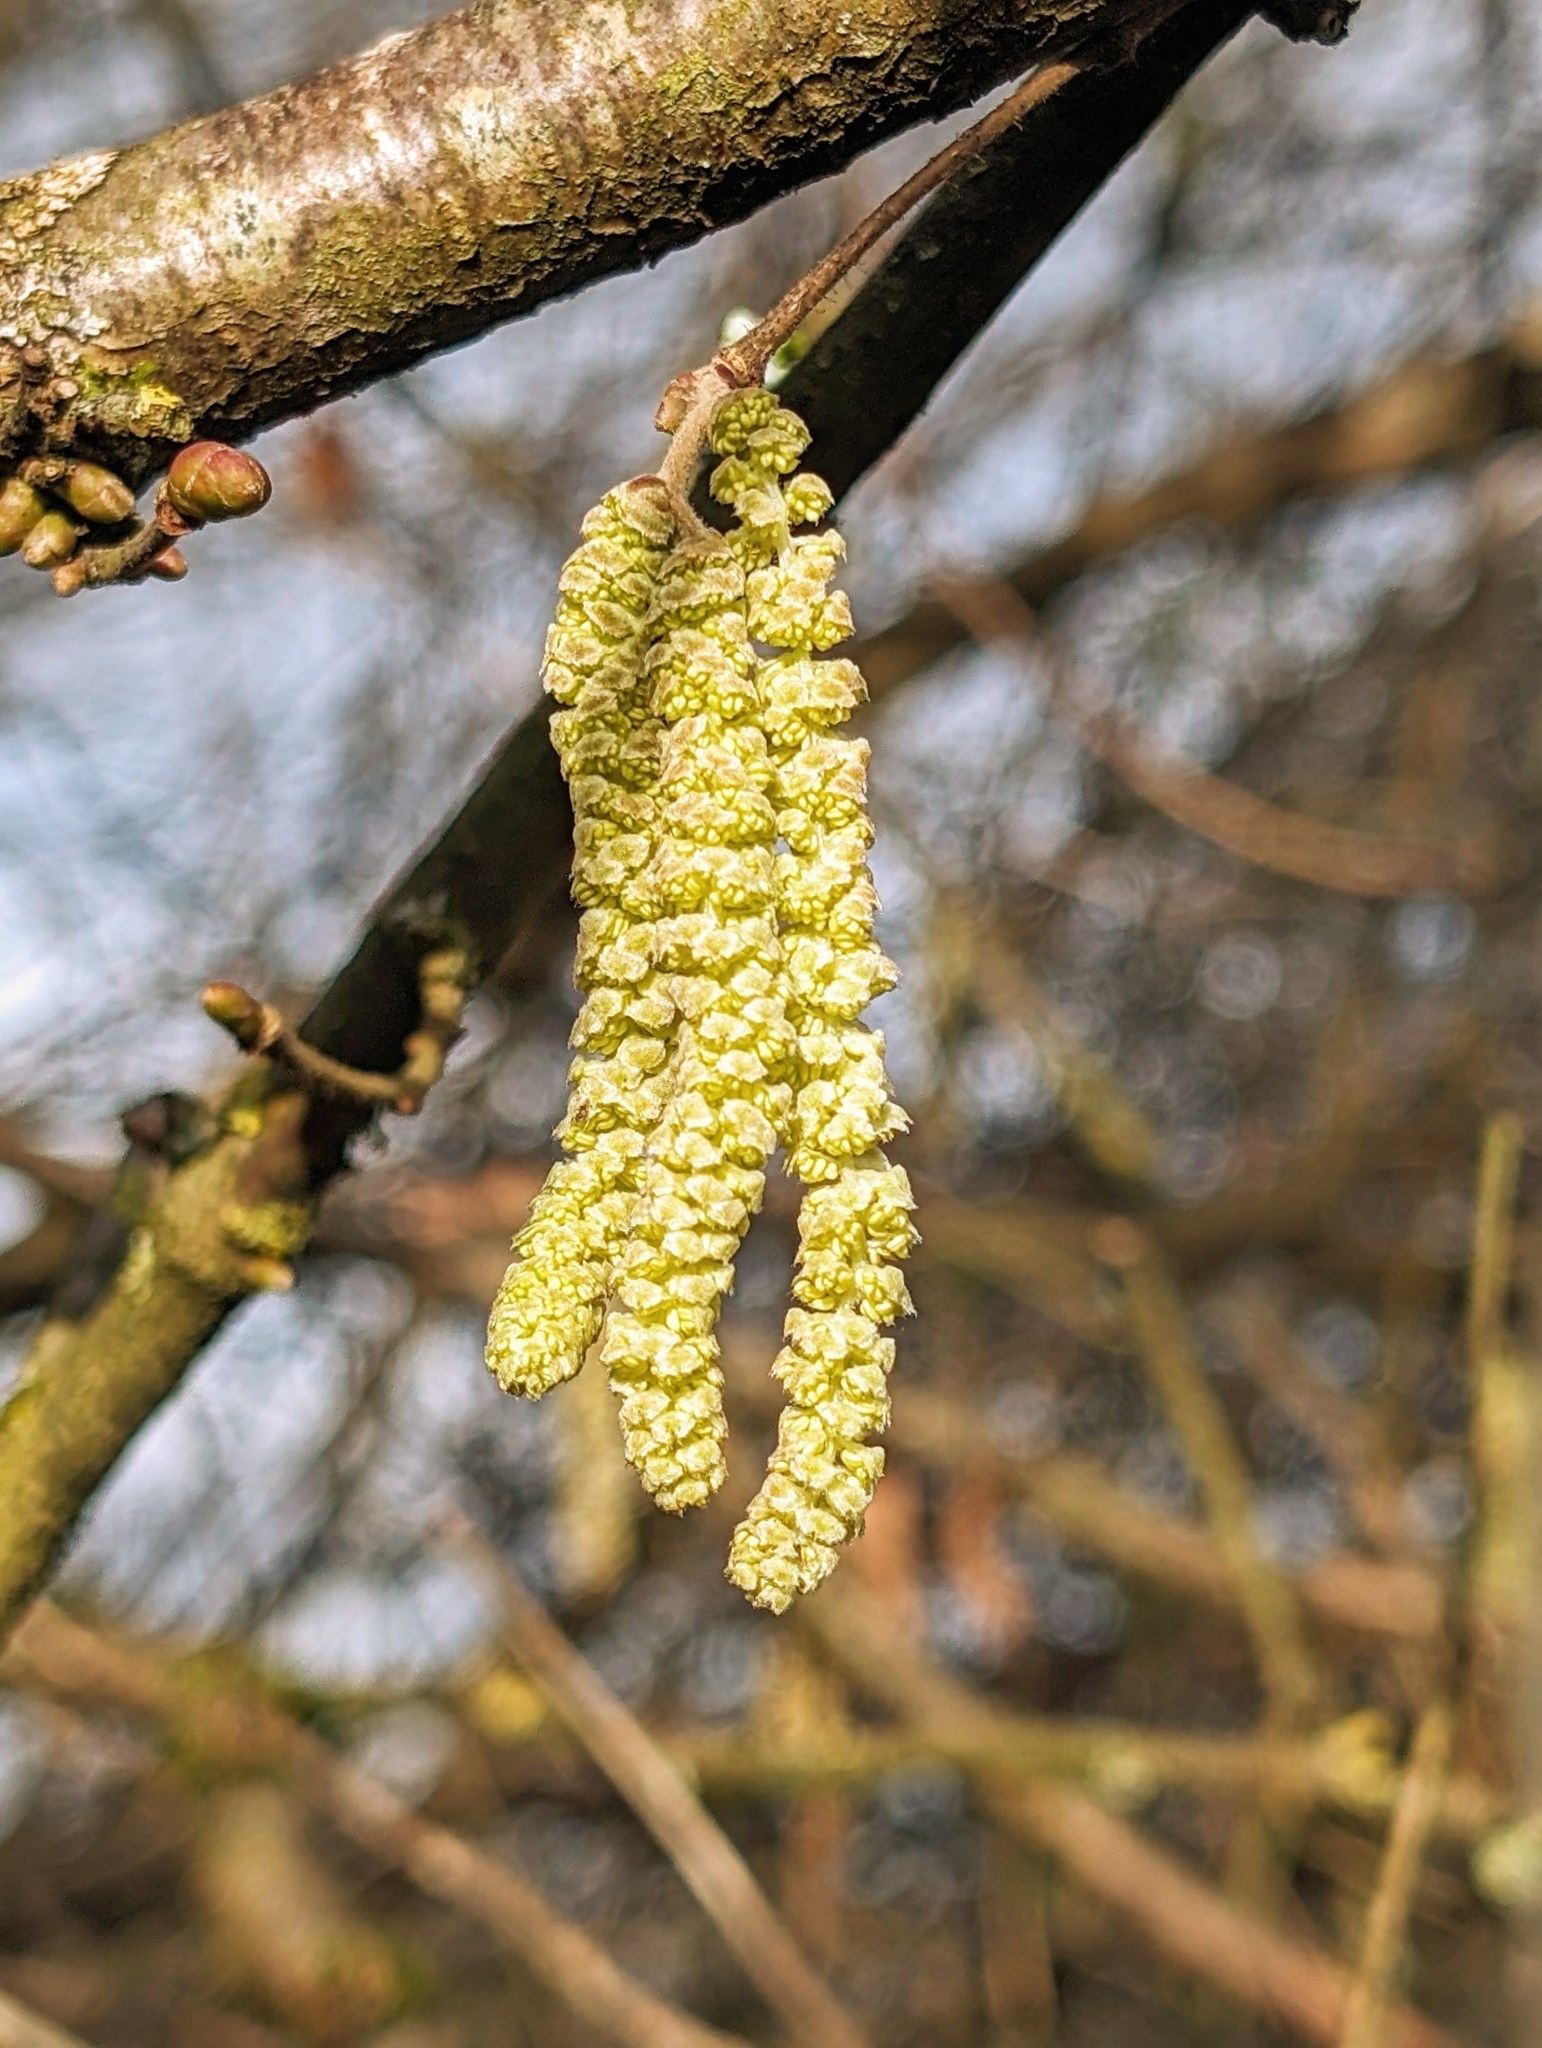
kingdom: Plantae
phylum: Tracheophyta
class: Magnoliopsida
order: Fagales
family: Betulaceae
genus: Corylus
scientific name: Corylus avellana
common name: European hazel
